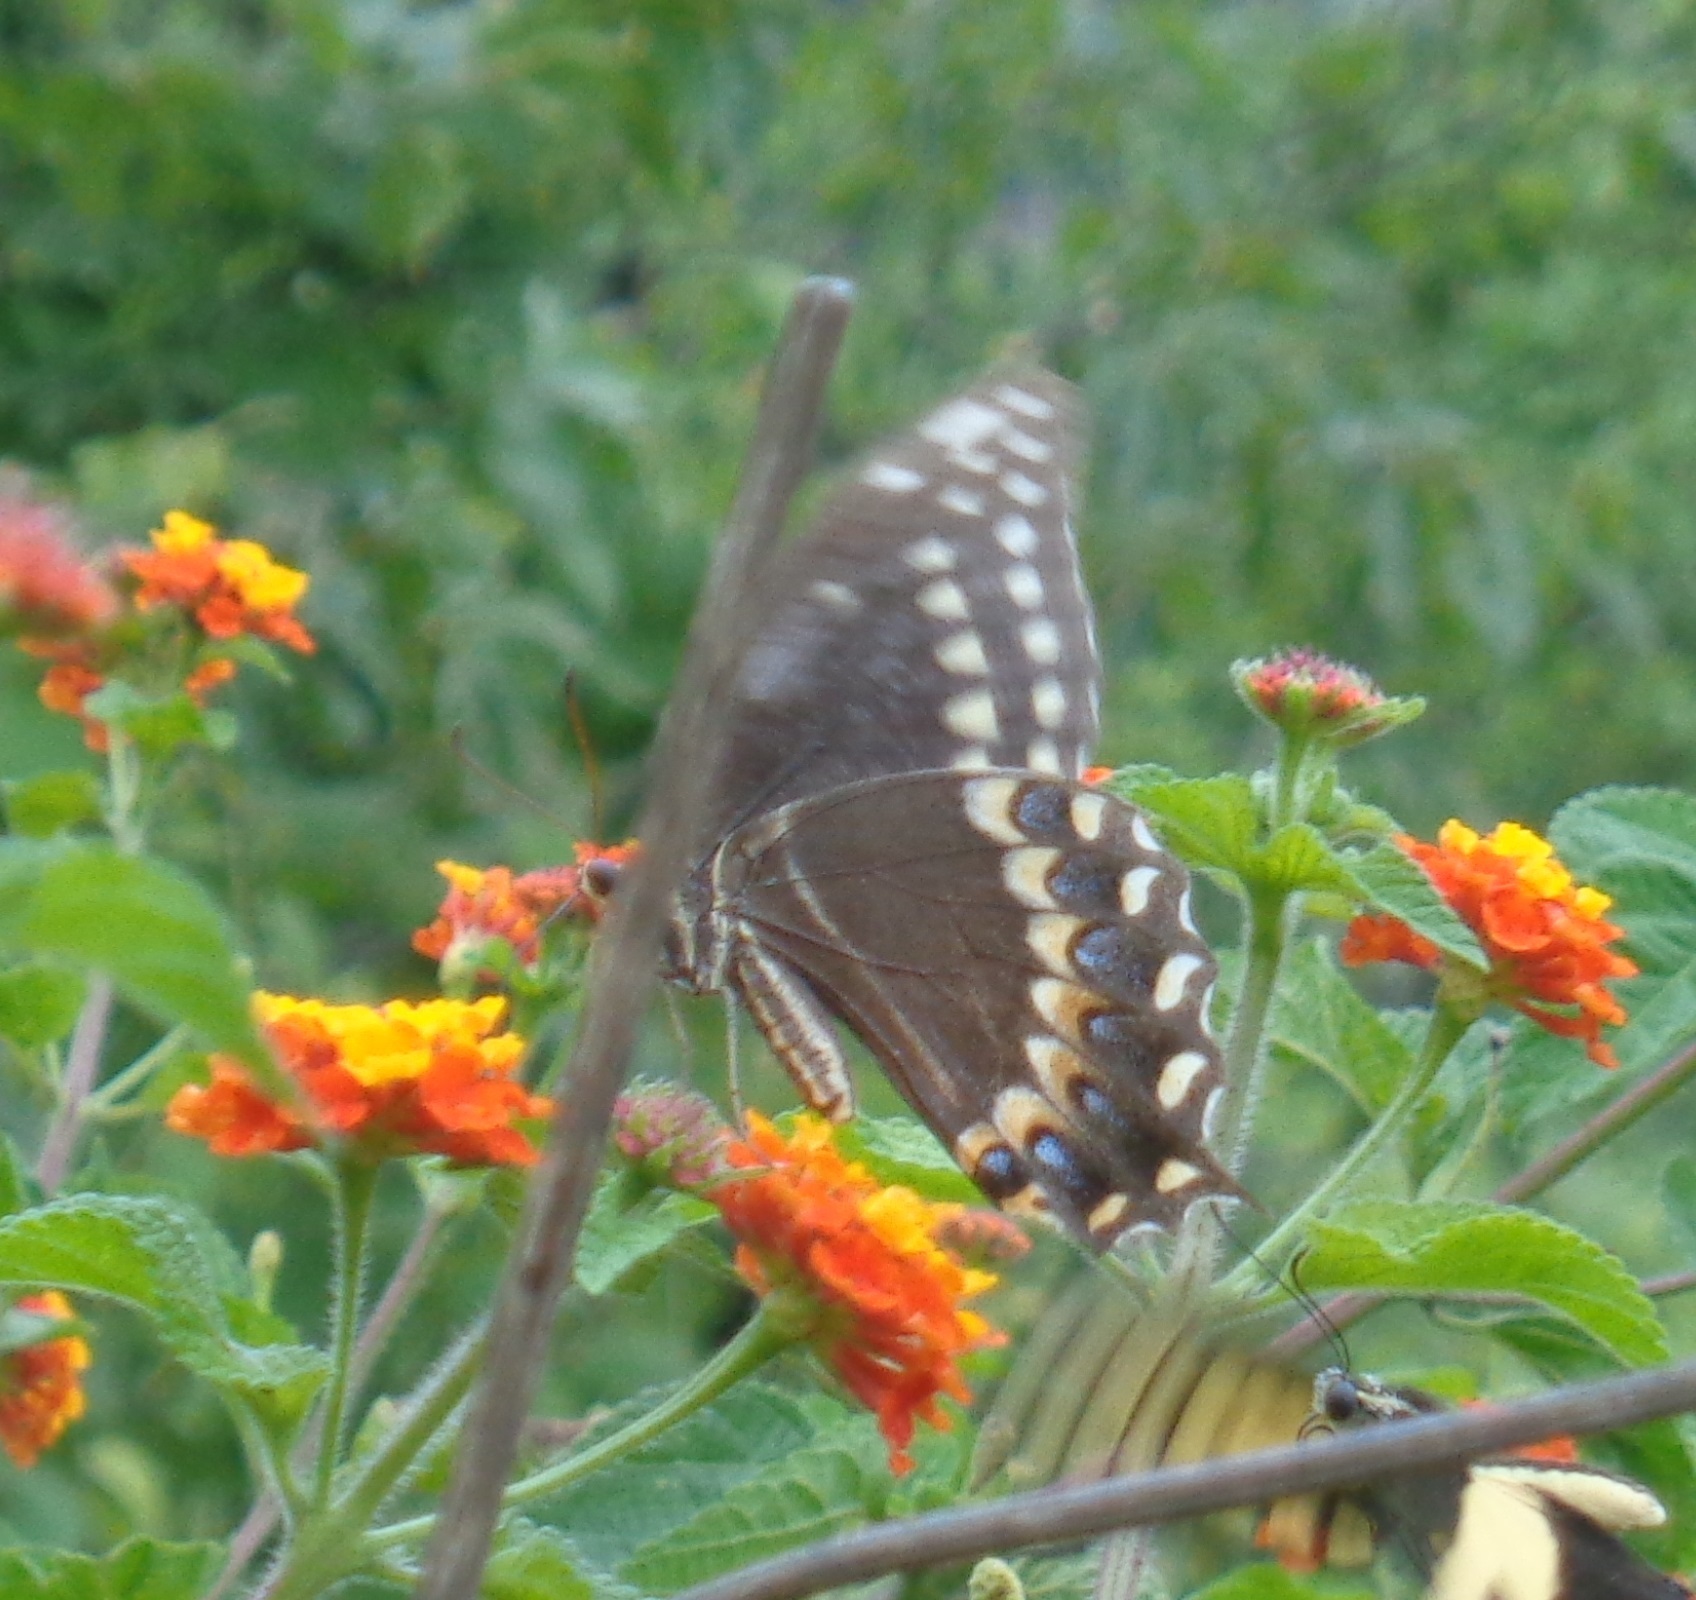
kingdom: Animalia
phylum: Arthropoda
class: Insecta
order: Lepidoptera
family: Papilionidae
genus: Papilio
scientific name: Papilio palamedes
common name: Palamedes swallowtail
